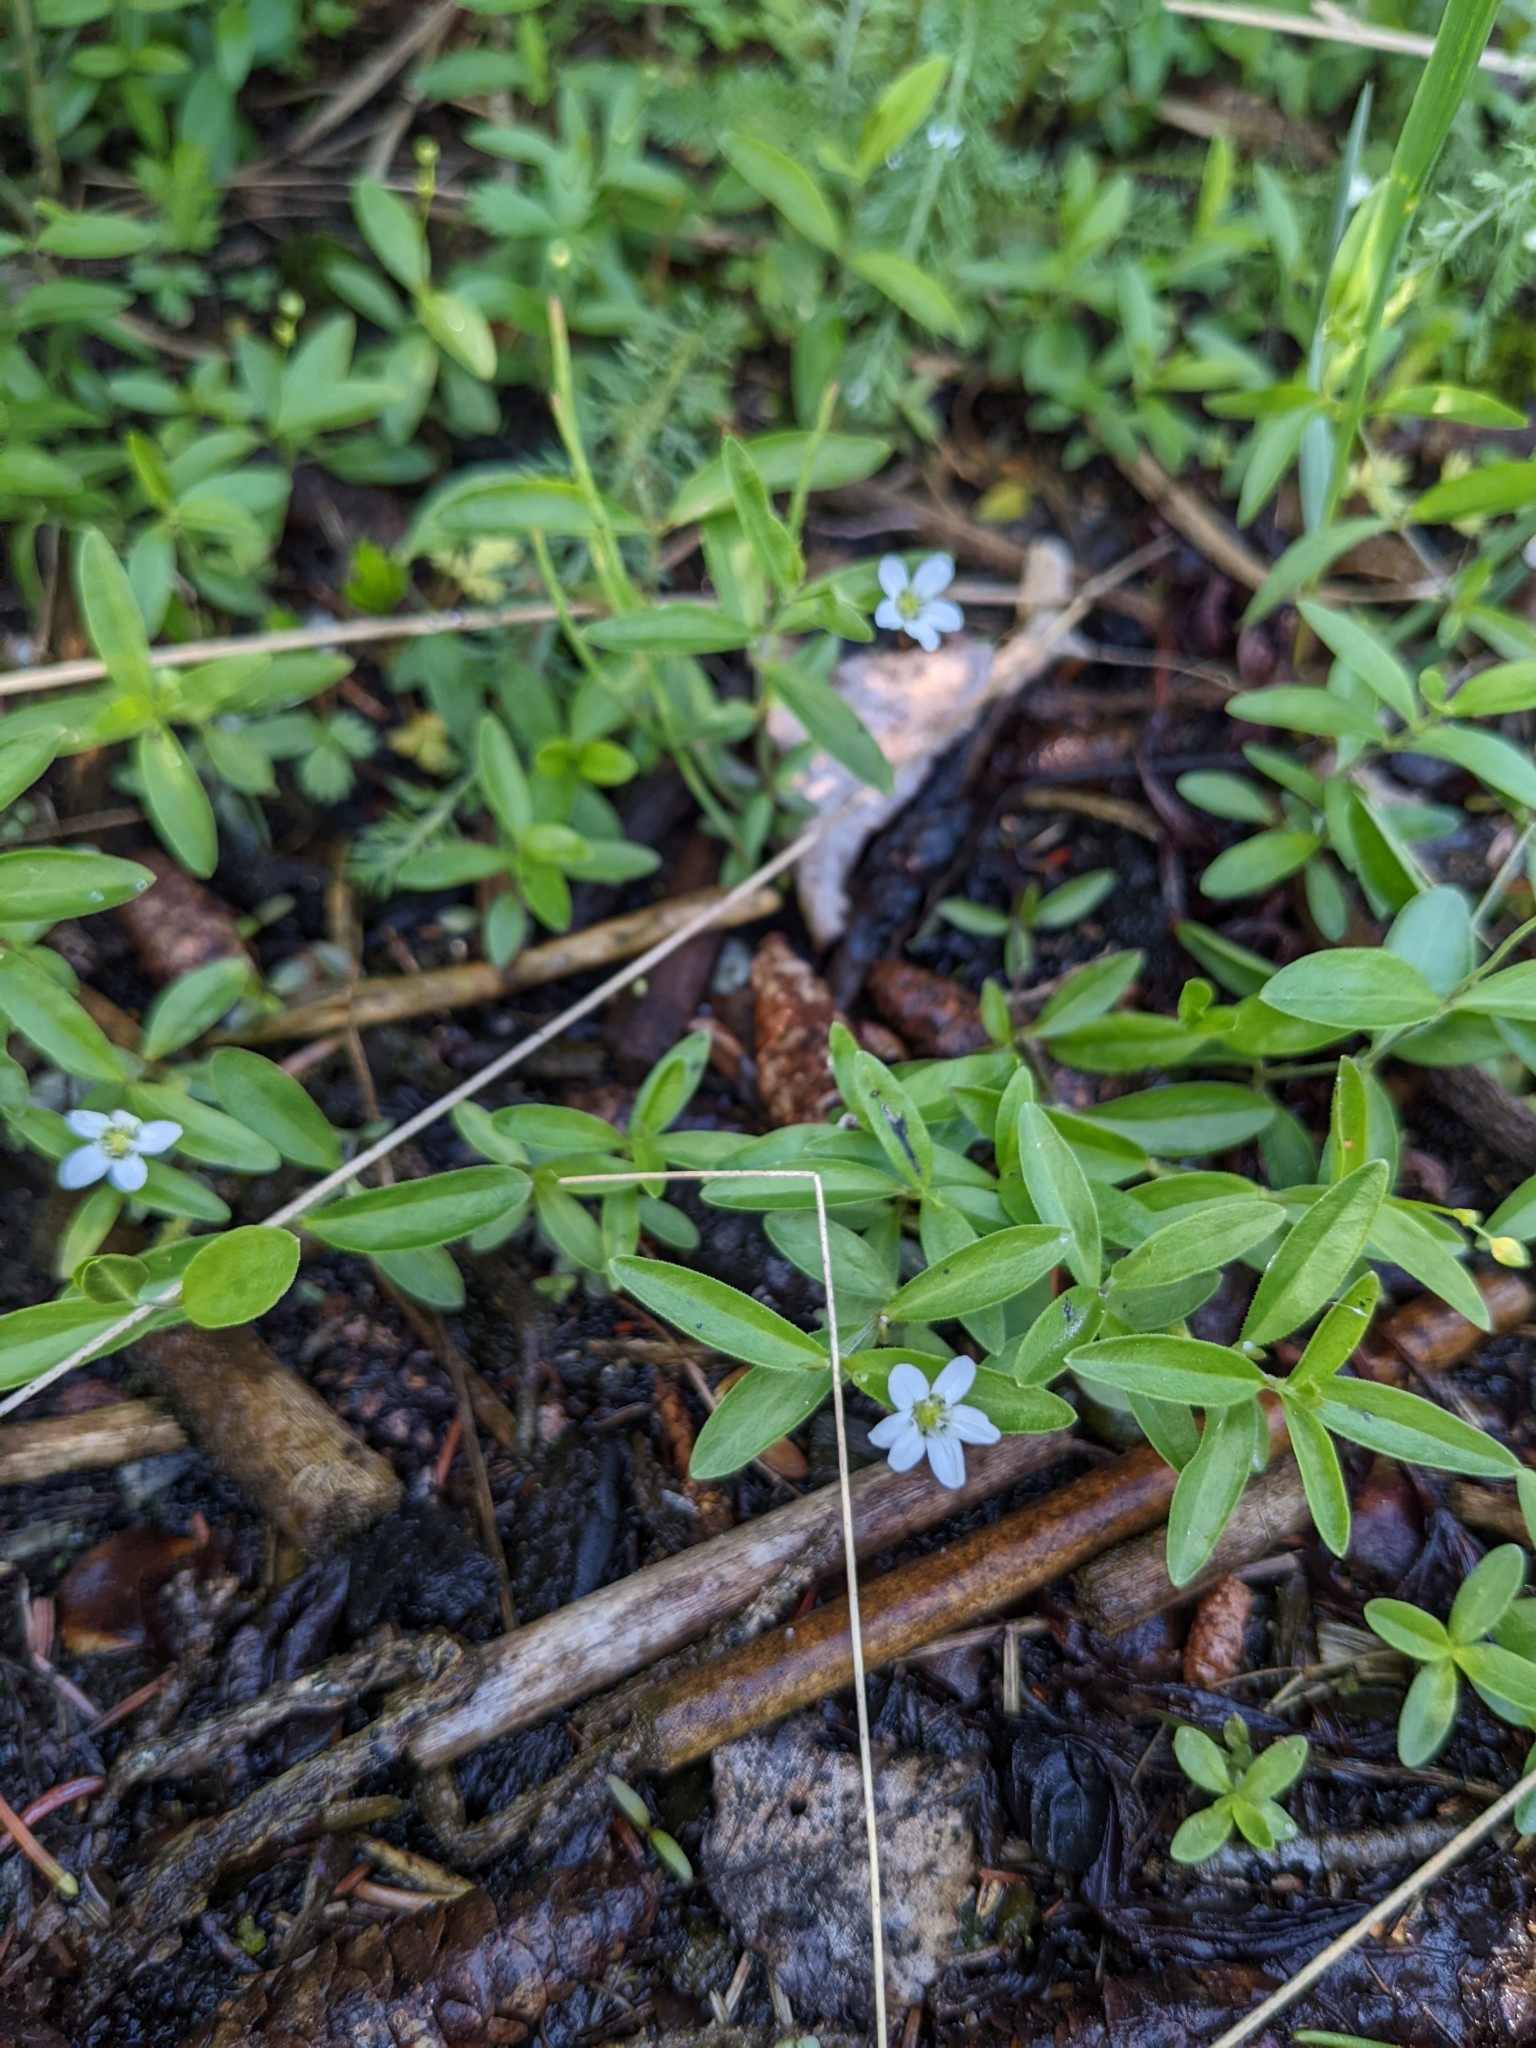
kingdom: Plantae
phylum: Tracheophyta
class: Magnoliopsida
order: Caryophyllales
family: Caryophyllaceae
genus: Moehringia
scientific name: Moehringia lateriflora
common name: Blunt-leaved sandwort
